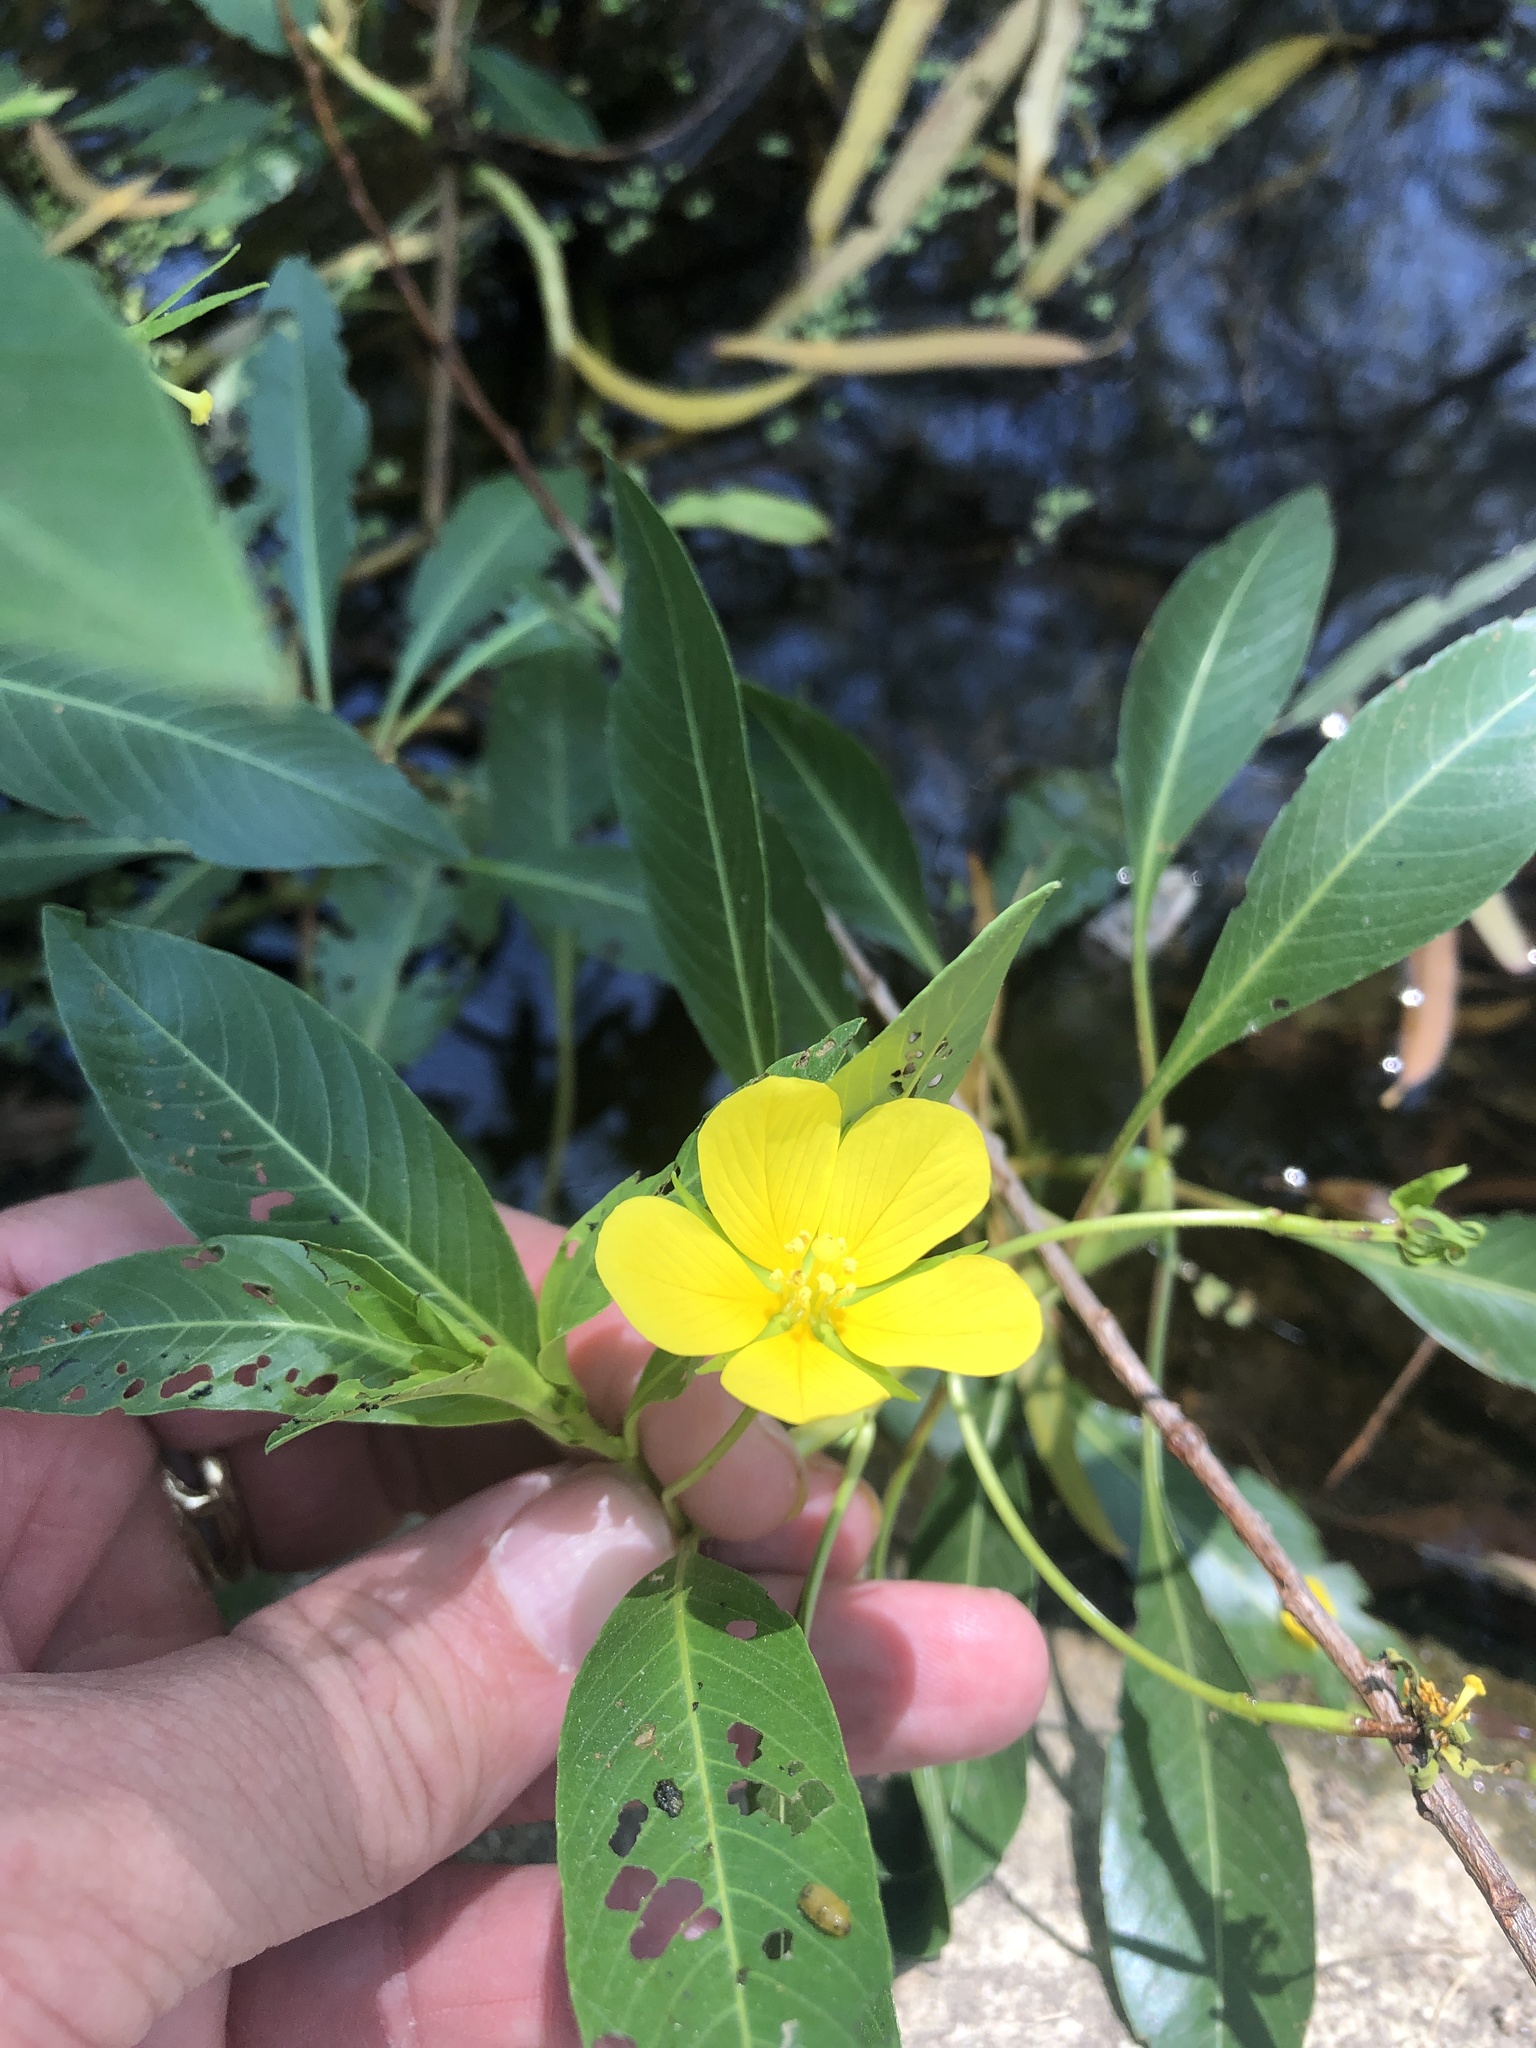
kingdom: Plantae
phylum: Tracheophyta
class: Magnoliopsida
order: Myrtales
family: Onagraceae
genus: Ludwigia
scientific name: Ludwigia peploides
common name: Floating primrose-willow
